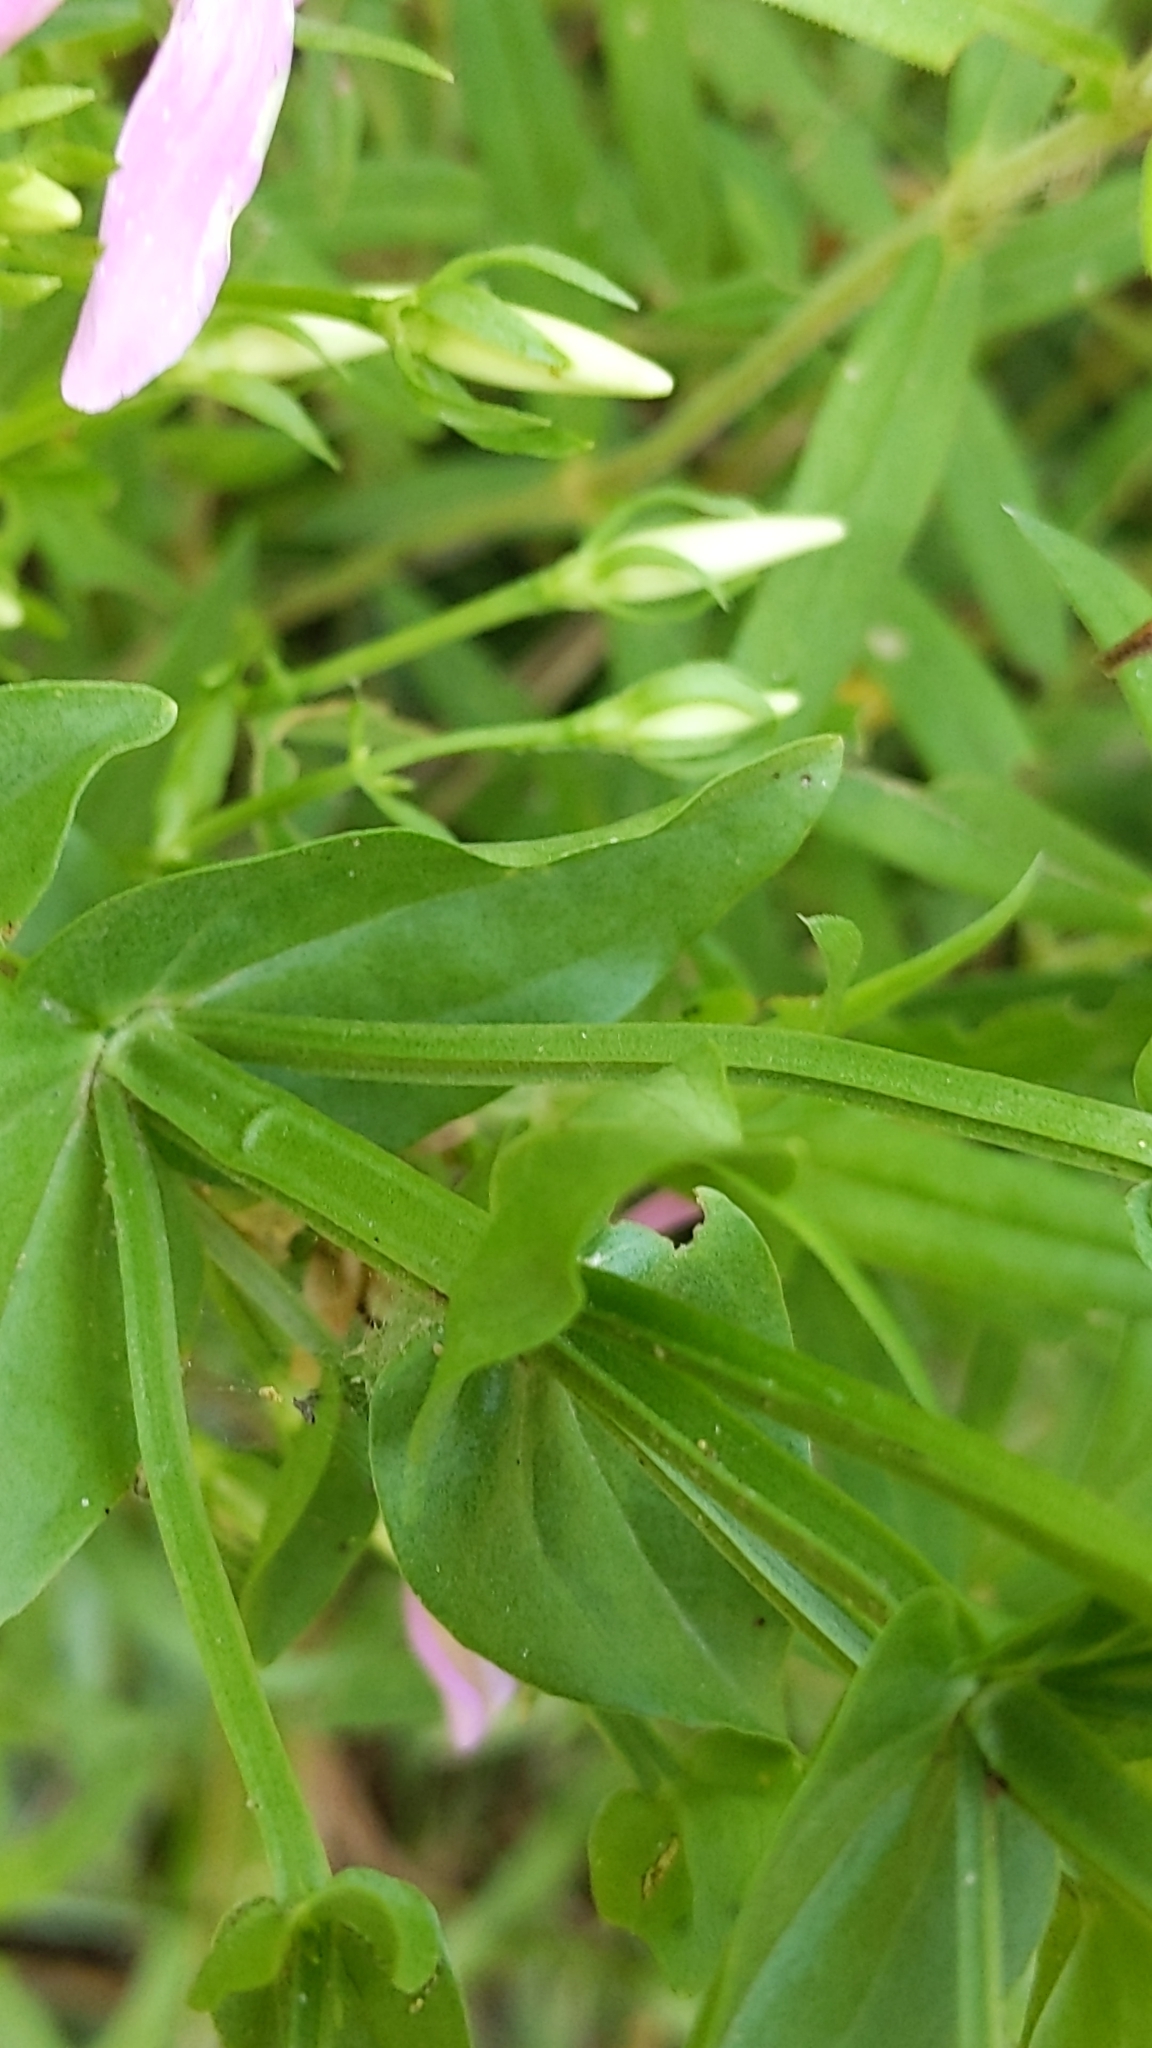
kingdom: Plantae
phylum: Tracheophyta
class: Magnoliopsida
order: Gentianales
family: Gentianaceae
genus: Sabatia
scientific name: Sabatia angularis
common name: Rose-pink
